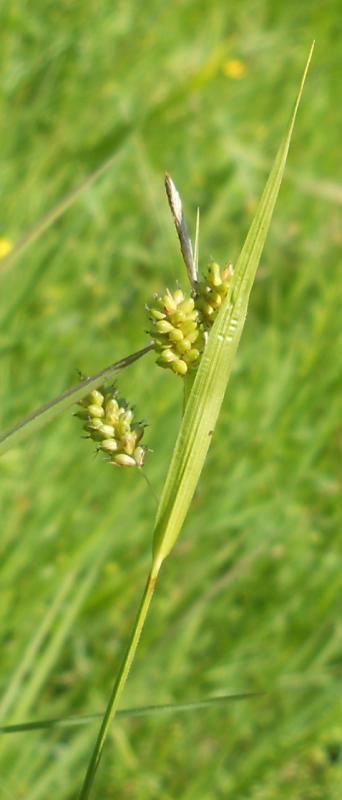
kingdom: Plantae
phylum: Tracheophyta
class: Liliopsida
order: Poales
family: Cyperaceae
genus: Carex
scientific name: Carex pallescens
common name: Pale sedge
